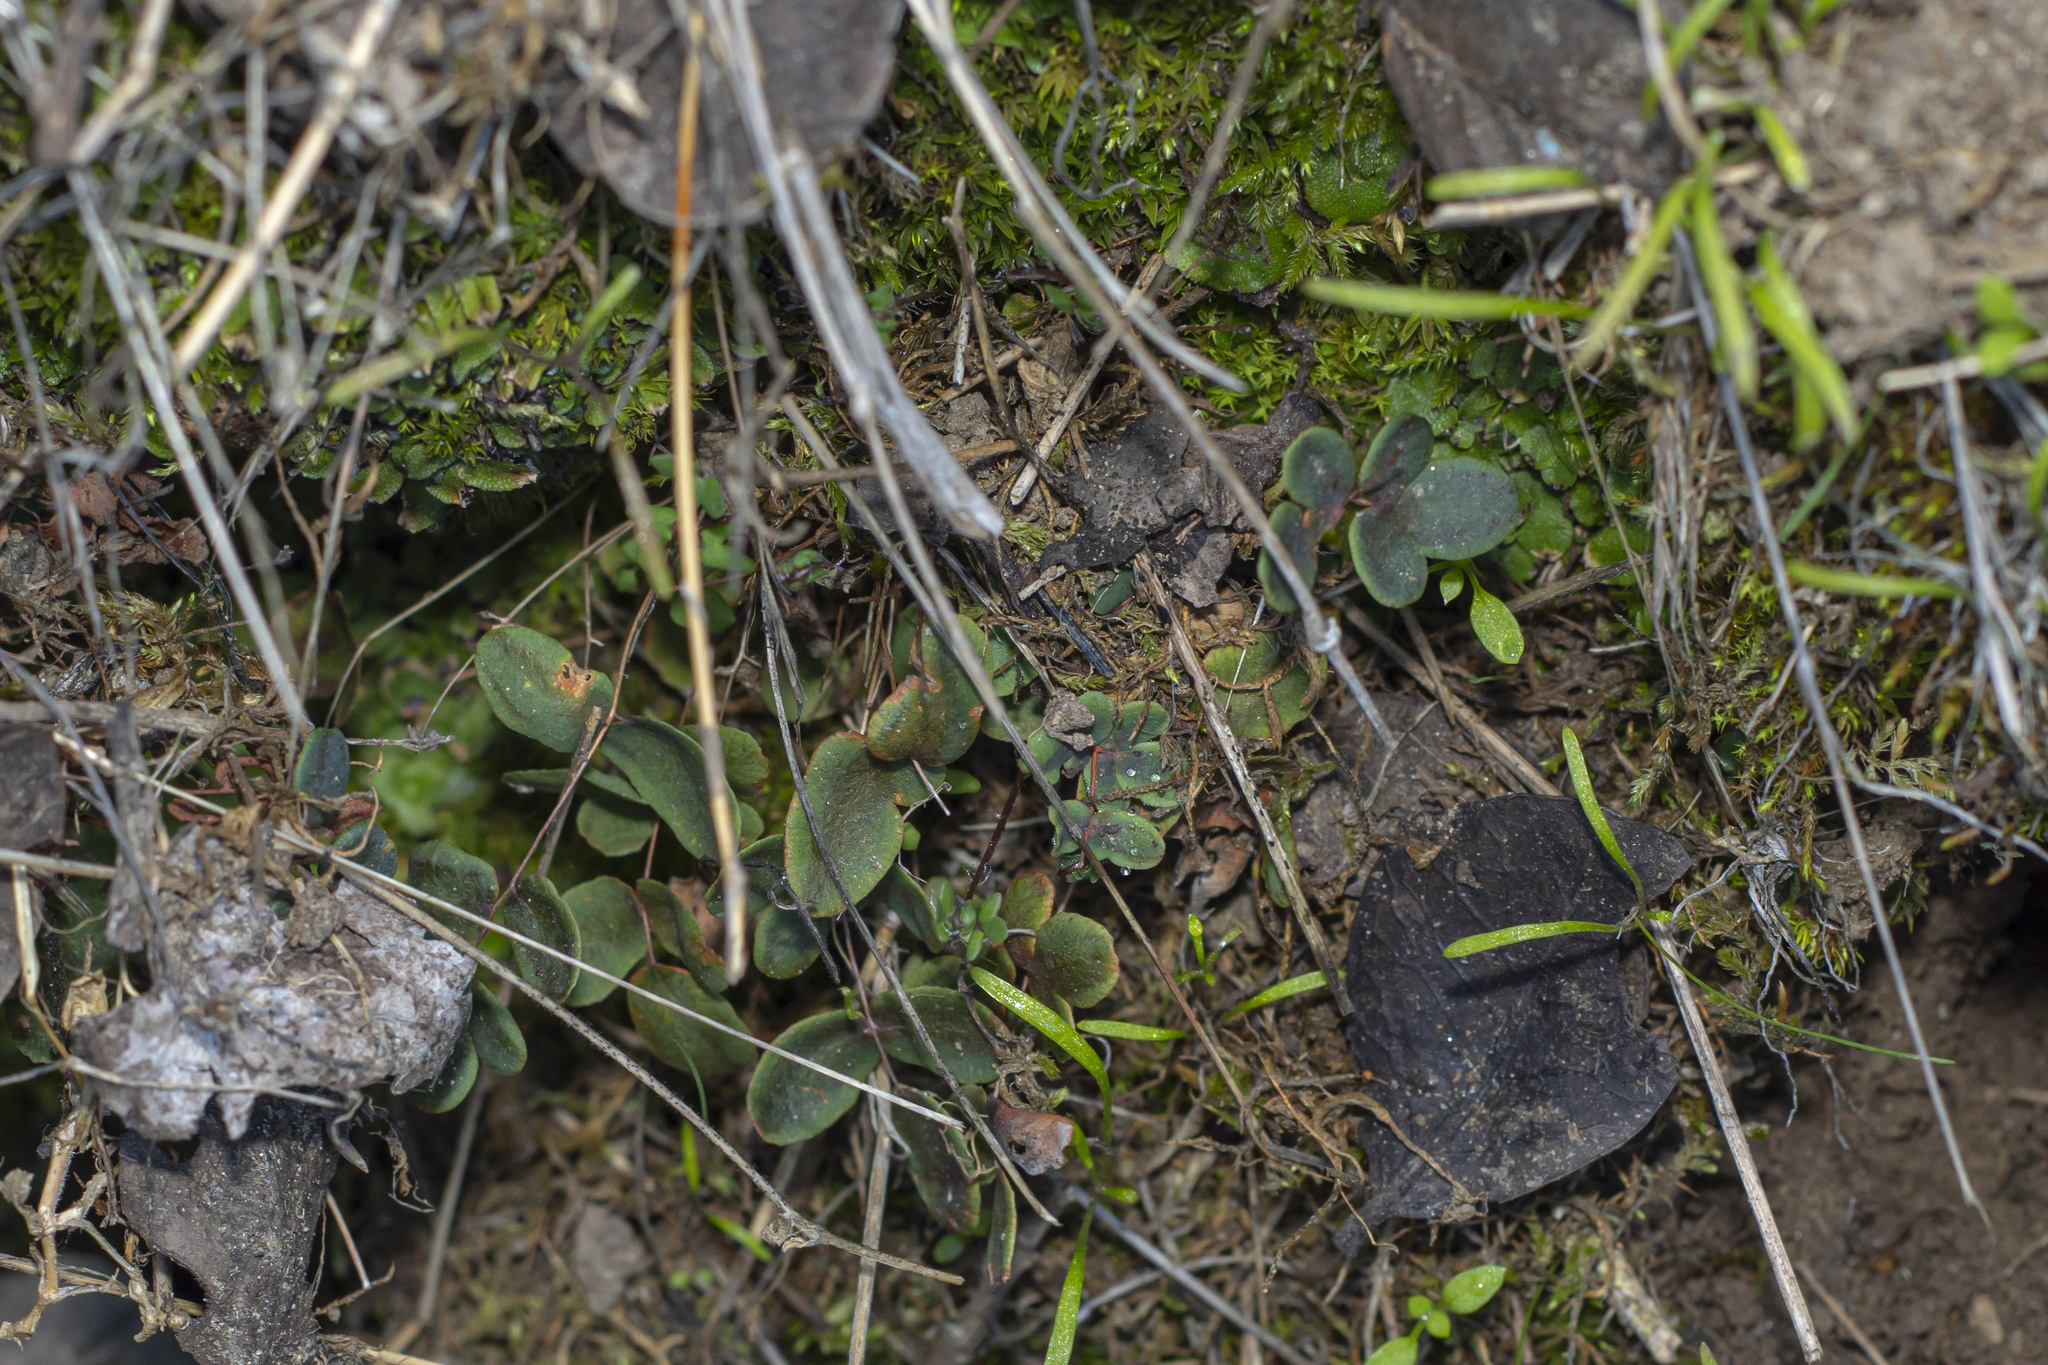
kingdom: Plantae
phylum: Tracheophyta
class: Polypodiopsida
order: Polypodiales
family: Pteridaceae
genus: Pellaea
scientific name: Pellaea andromedifolia
